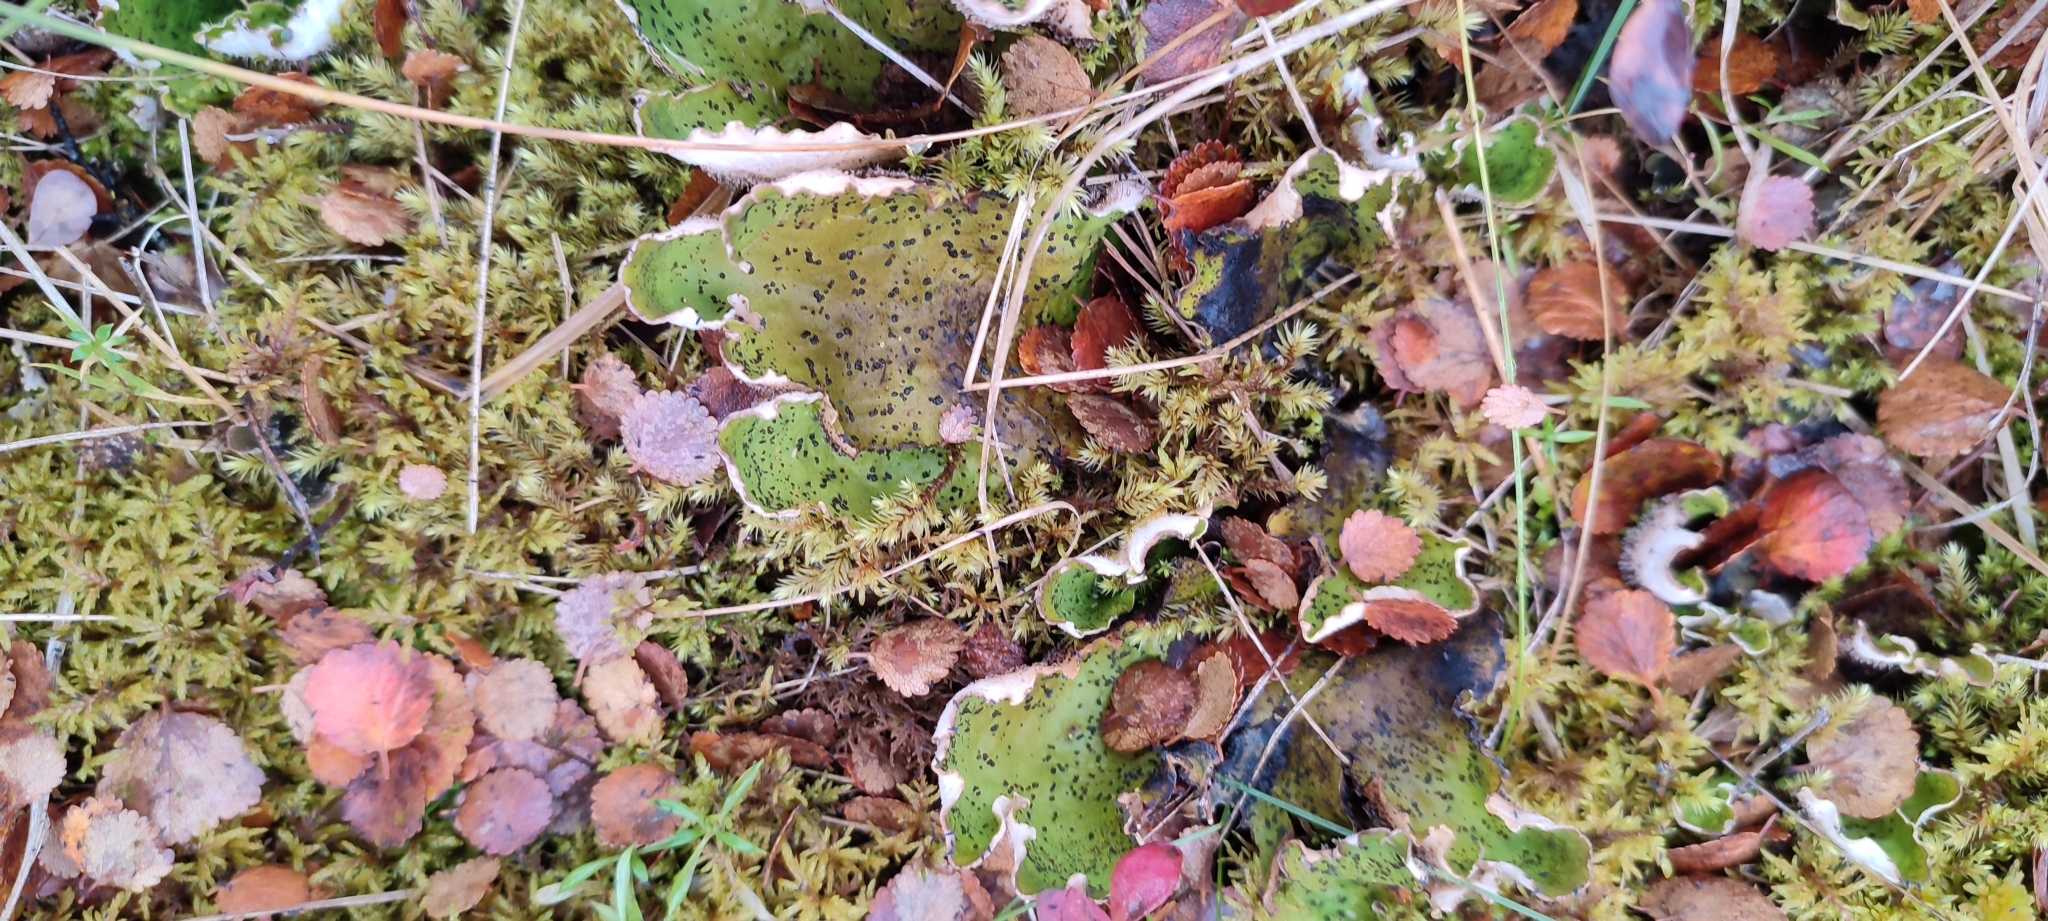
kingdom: Fungi
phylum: Ascomycota
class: Lecanoromycetes
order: Peltigerales
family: Peltigeraceae
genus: Peltigera
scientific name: Peltigera aphthosa
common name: Common freckle pelt lichen
